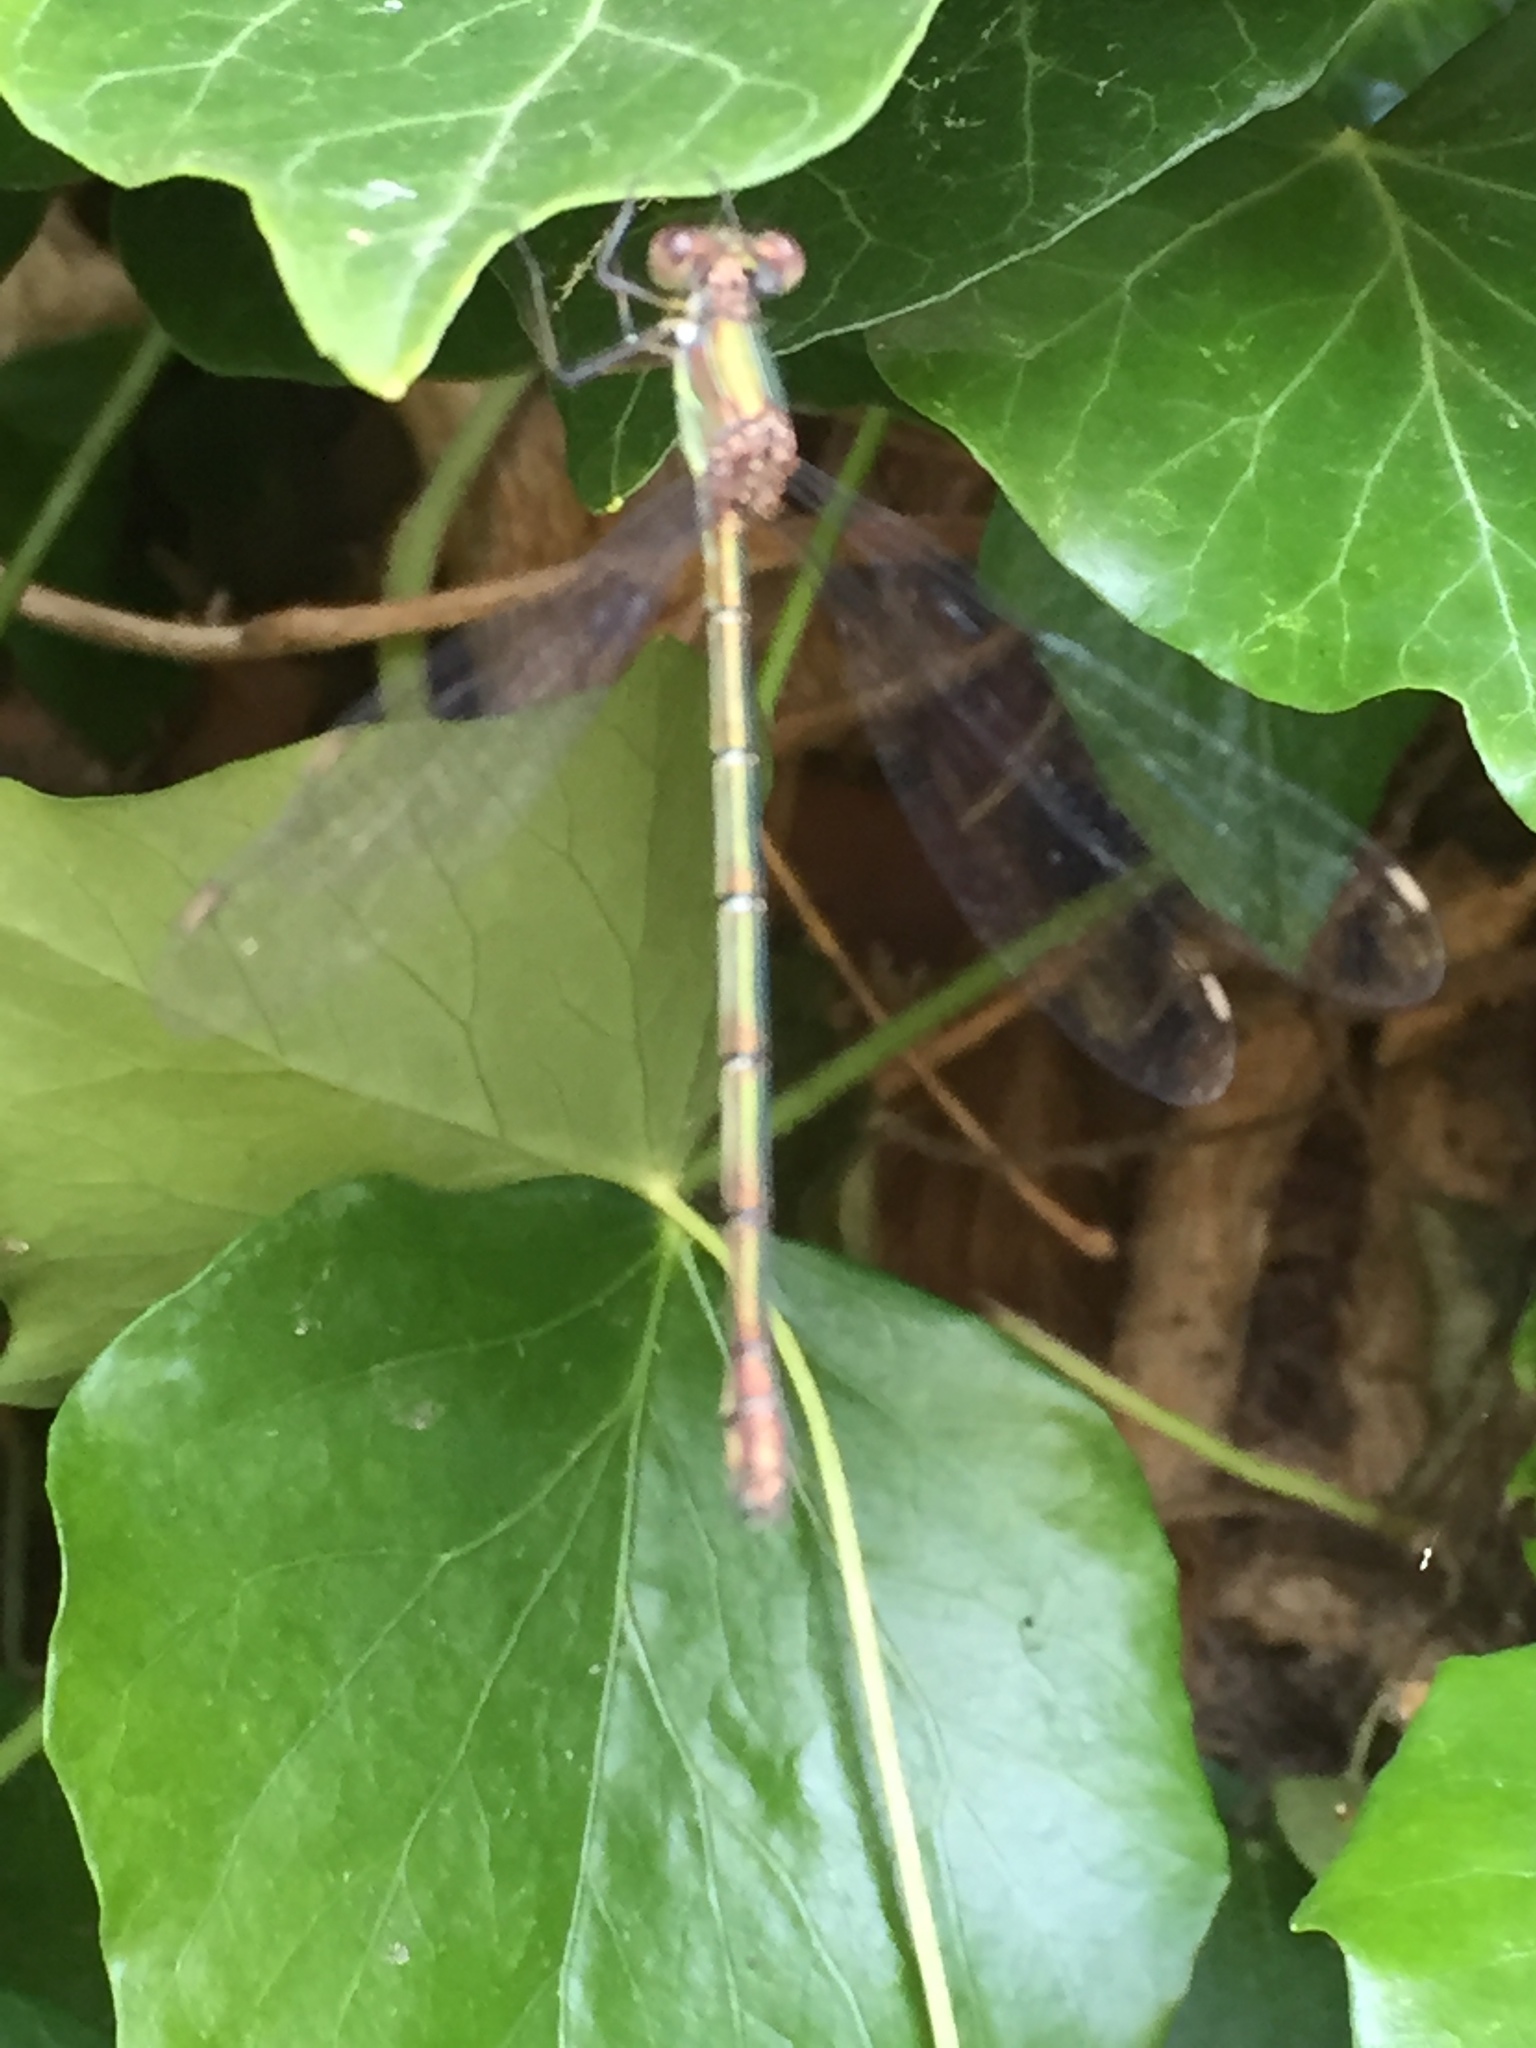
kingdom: Animalia
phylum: Arthropoda
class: Insecta
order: Odonata
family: Lestidae
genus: Chalcolestes
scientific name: Chalcolestes viridis
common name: Green emerald damselfly
